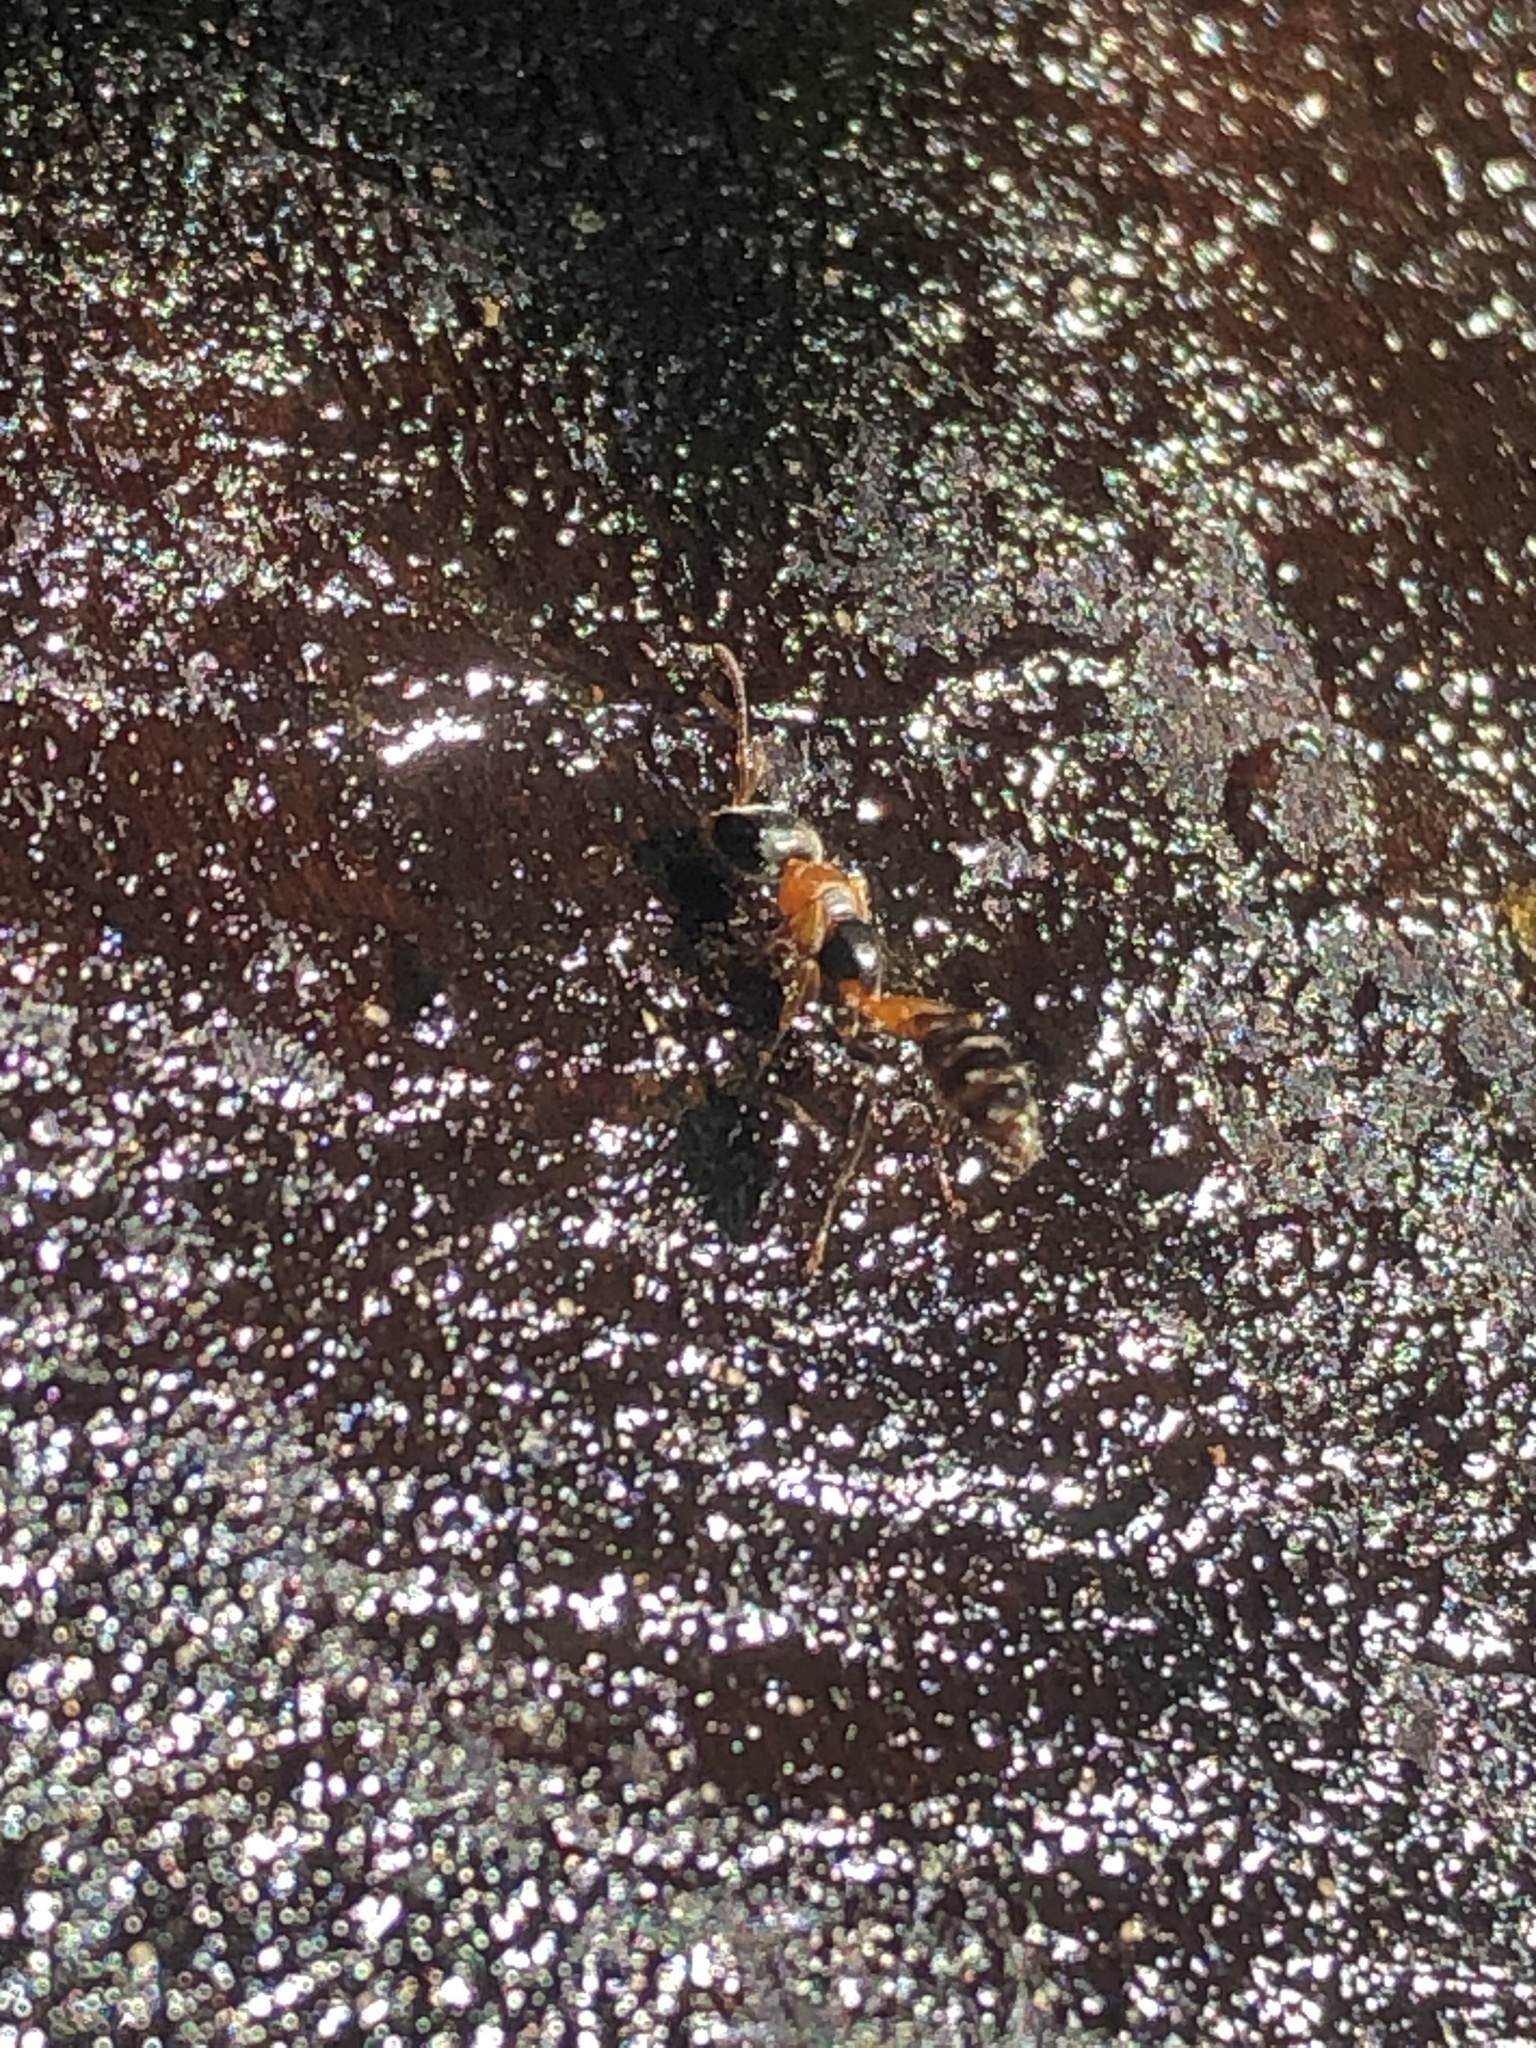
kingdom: Animalia
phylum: Arthropoda
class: Insecta
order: Hymenoptera
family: Formicidae
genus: Pseudomyrmex
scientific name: Pseudomyrmex gracilis
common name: Graceful twig ant
